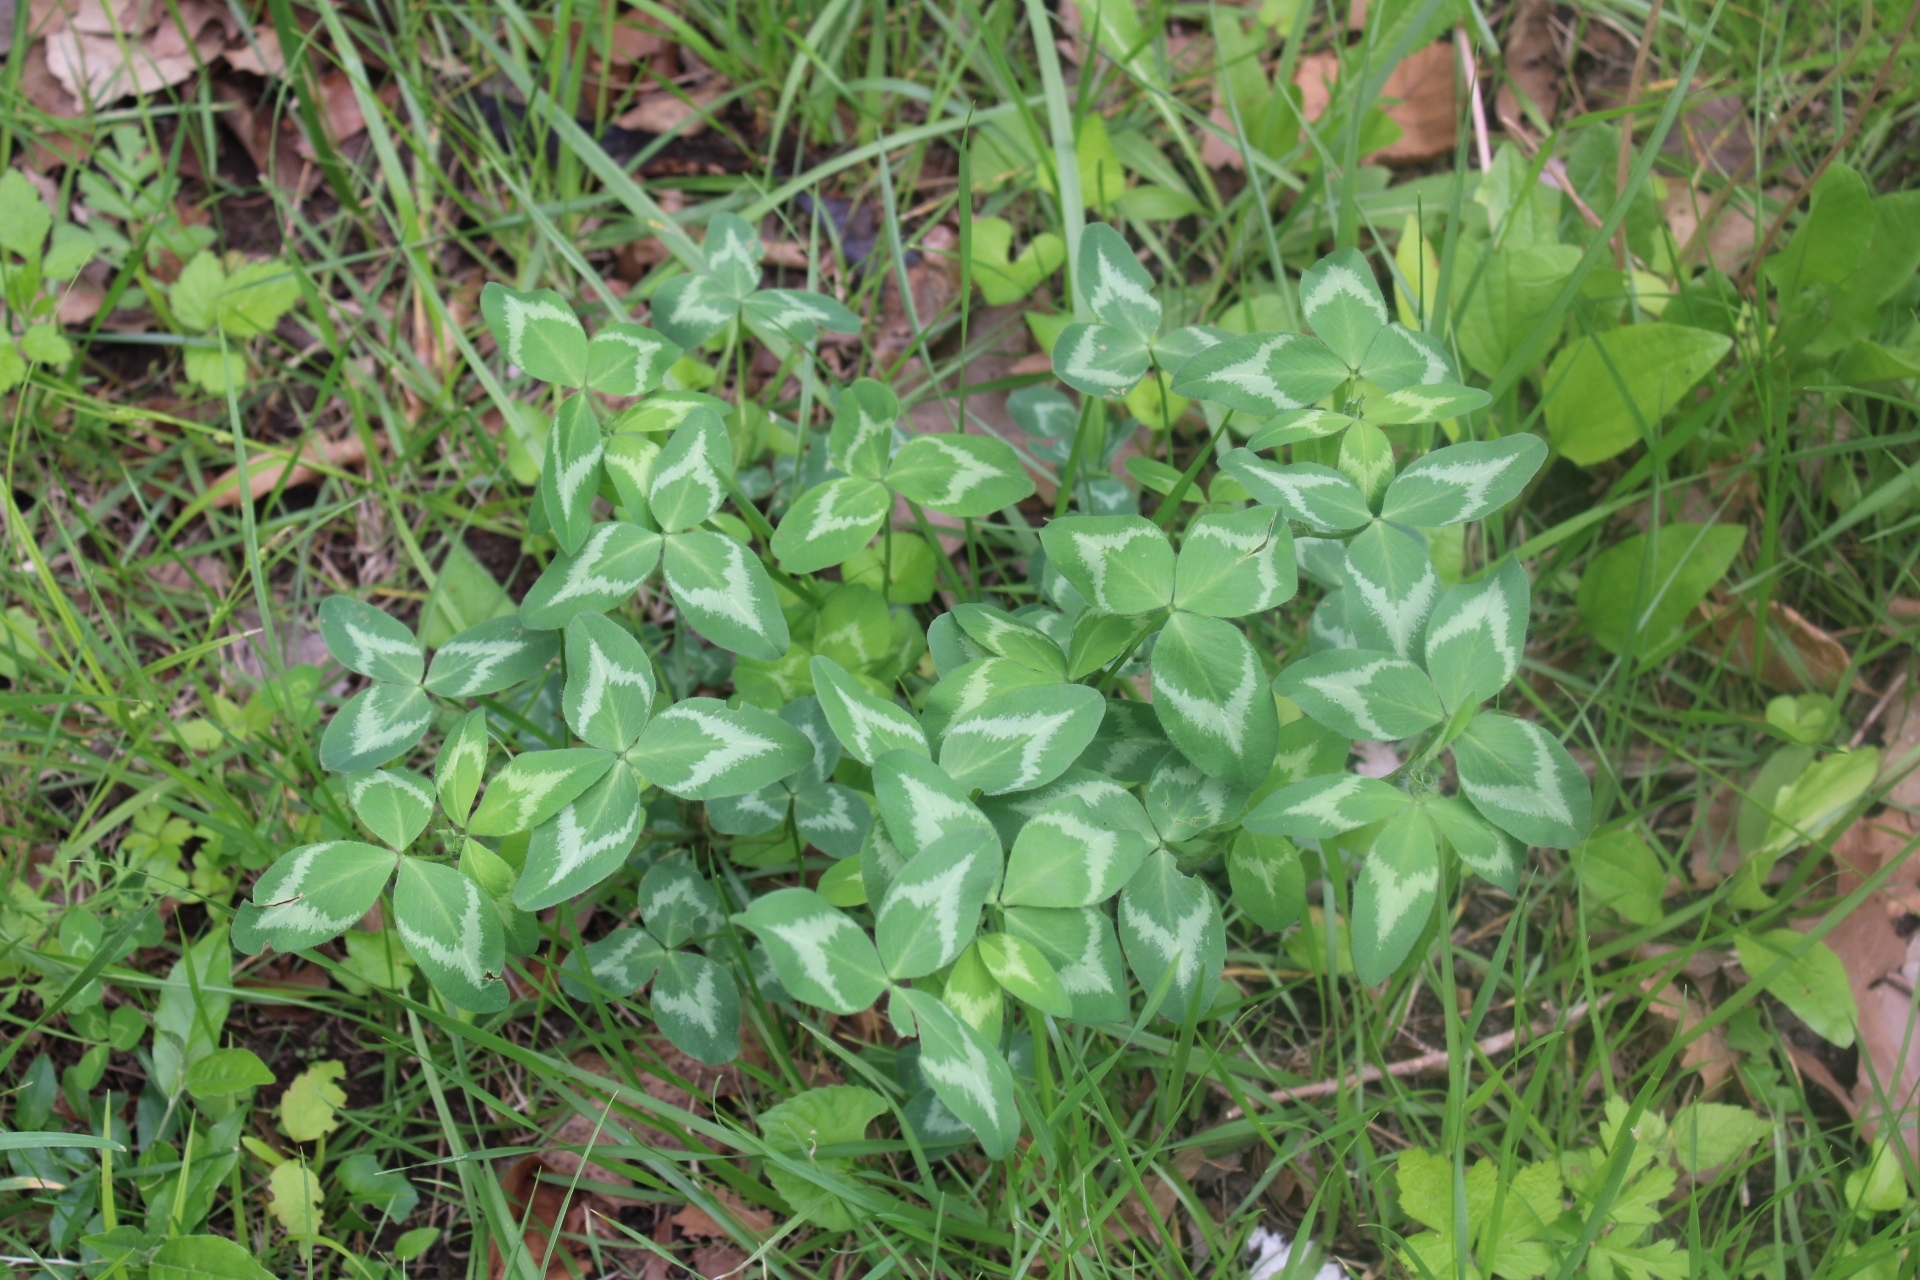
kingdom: Plantae
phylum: Tracheophyta
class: Magnoliopsida
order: Fabales
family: Fabaceae
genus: Trifolium
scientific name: Trifolium pratense
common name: Red clover
